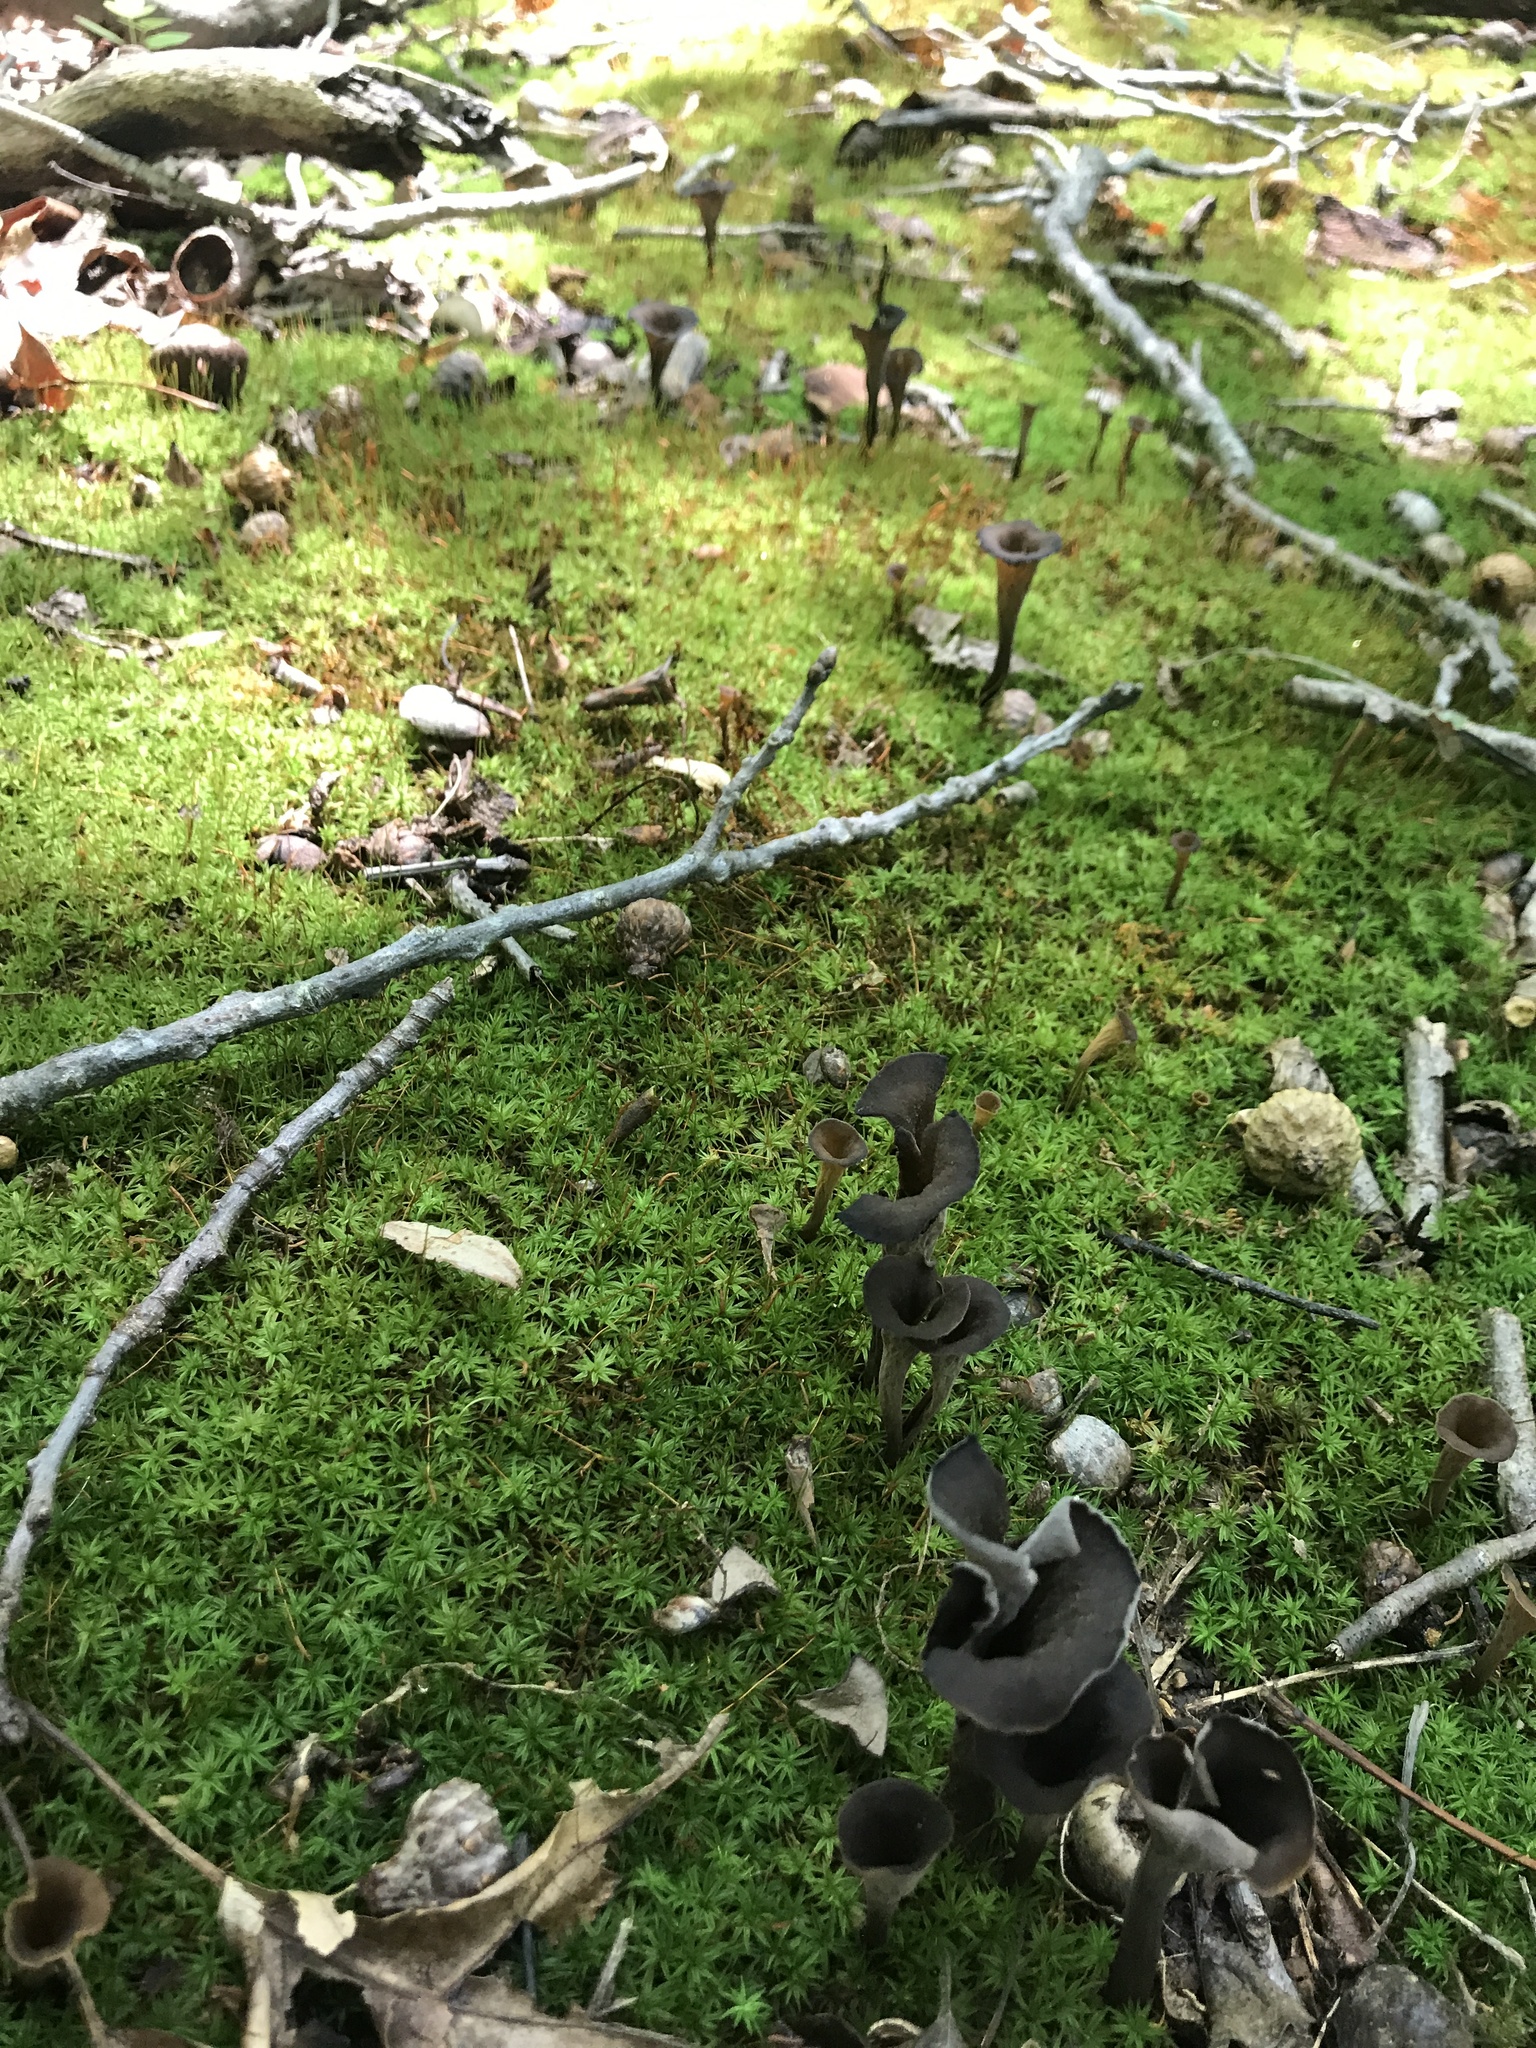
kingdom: Fungi
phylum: Basidiomycota
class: Agaricomycetes
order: Cantharellales
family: Hydnaceae
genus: Craterellus
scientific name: Craterellus cornucopioides
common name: Horn of plenty
